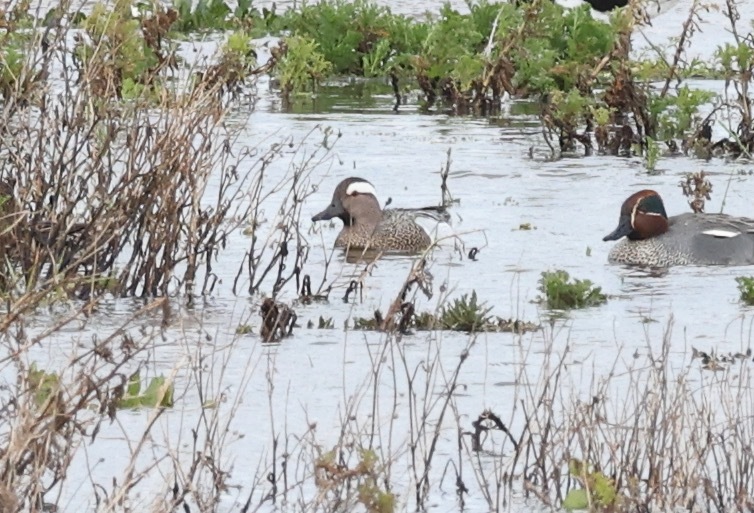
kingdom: Animalia
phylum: Chordata
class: Aves
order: Anseriformes
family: Anatidae
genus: Spatula
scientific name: Spatula querquedula
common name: Garganey
